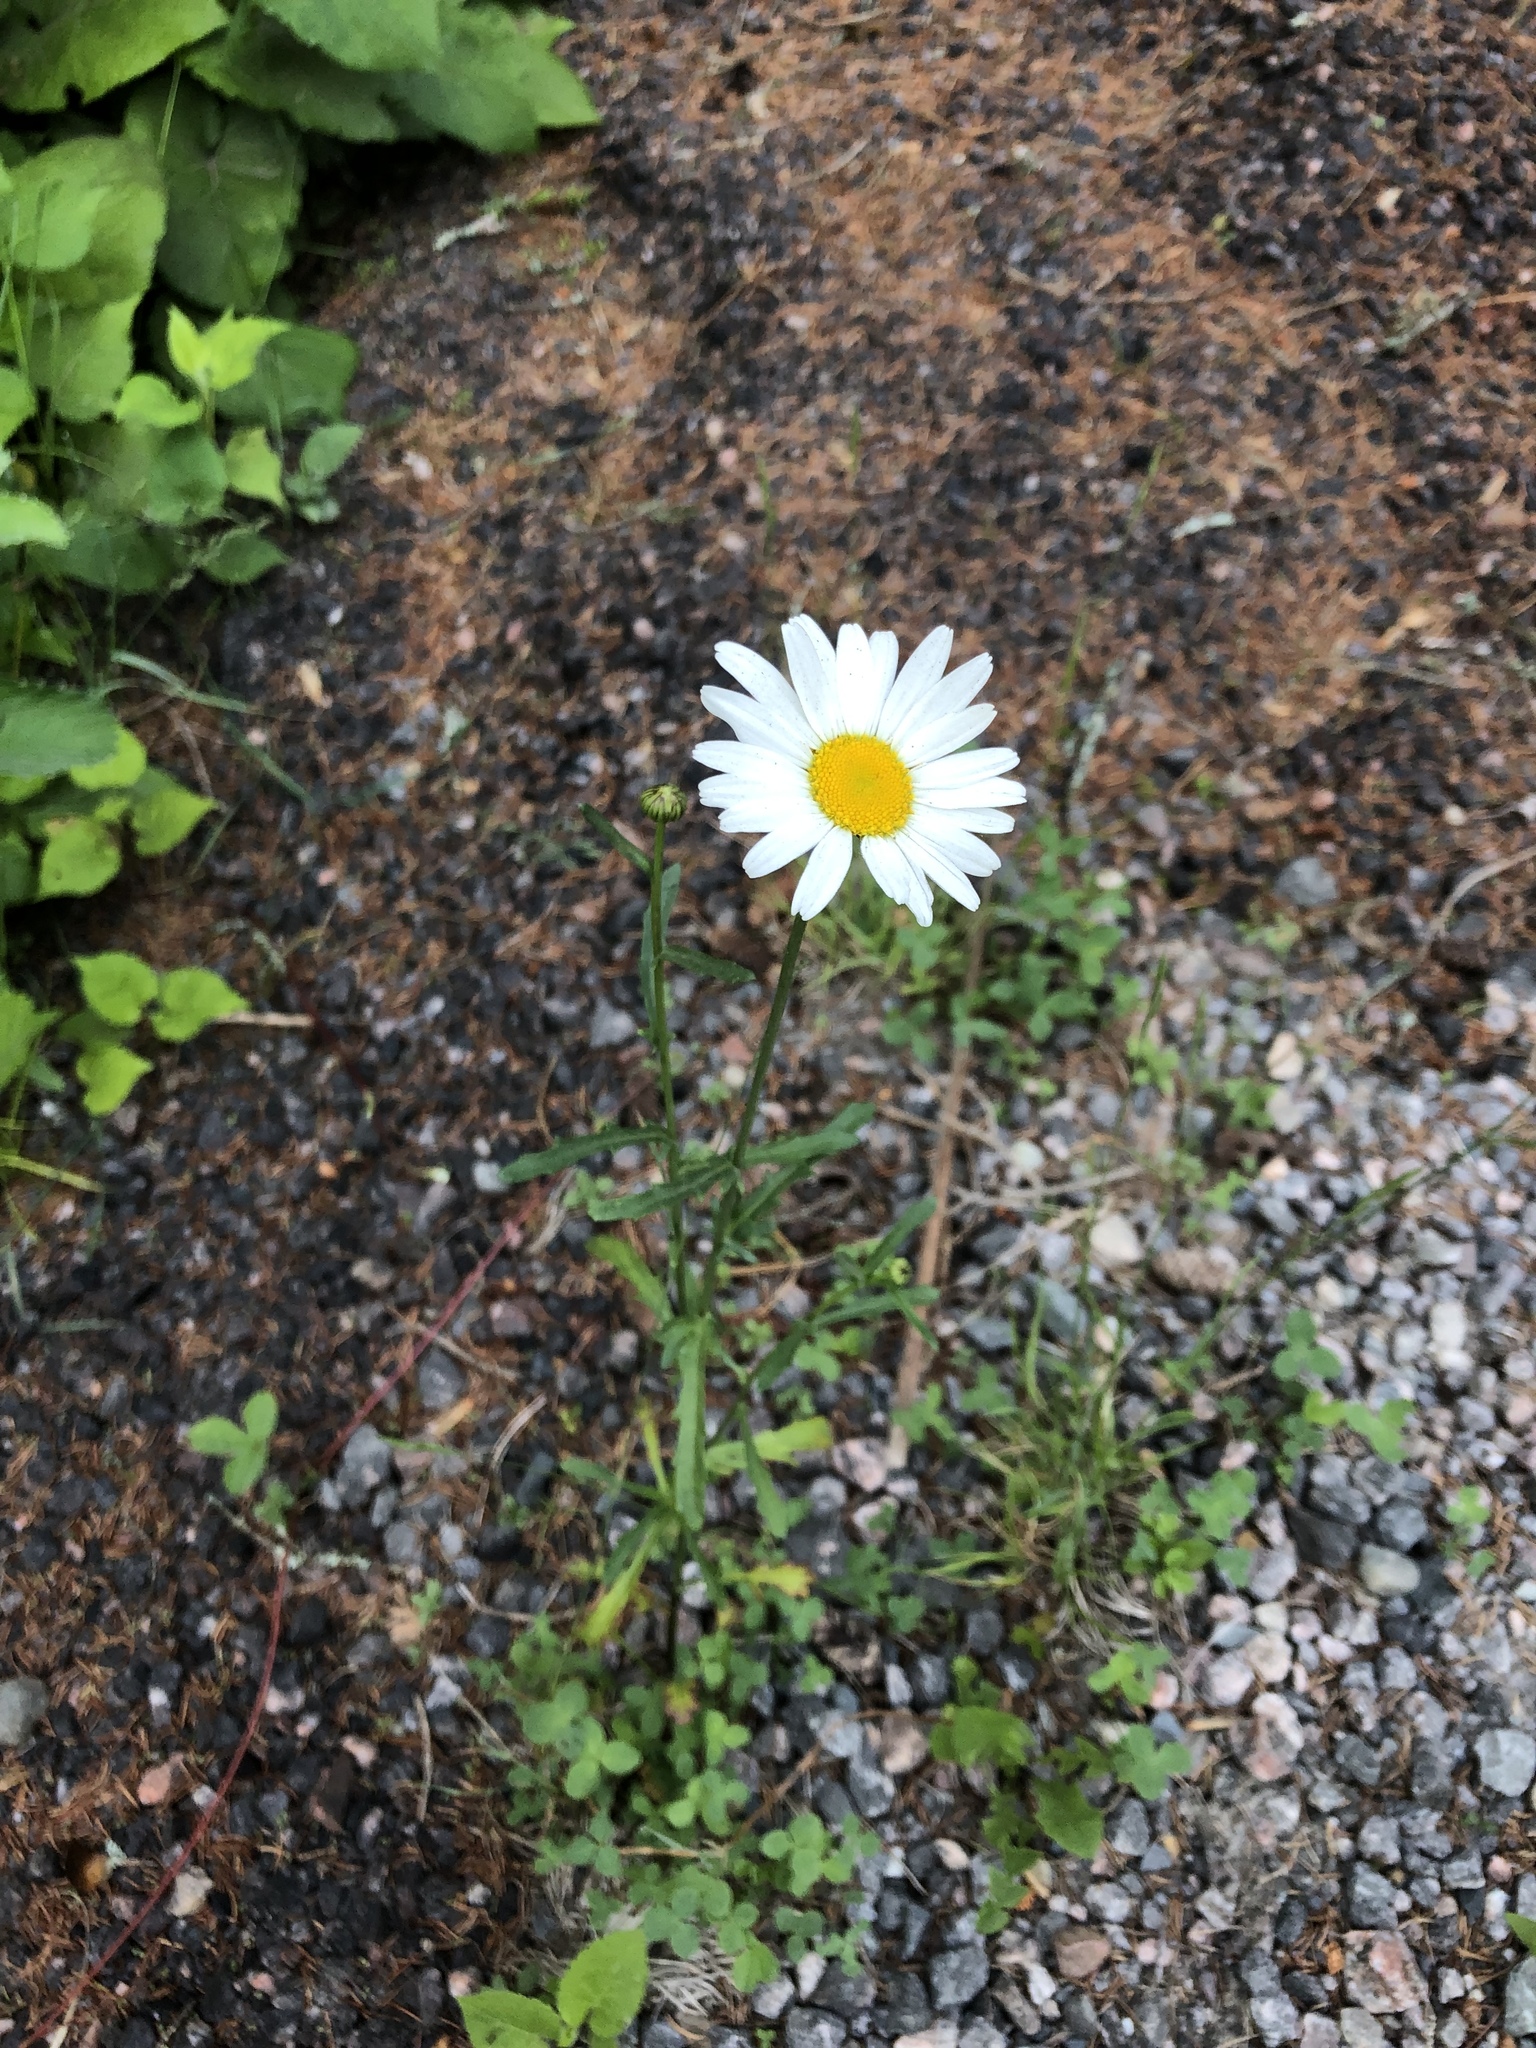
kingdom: Plantae
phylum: Tracheophyta
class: Magnoliopsida
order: Asterales
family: Asteraceae
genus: Leucanthemum
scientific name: Leucanthemum vulgare
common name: Oxeye daisy
